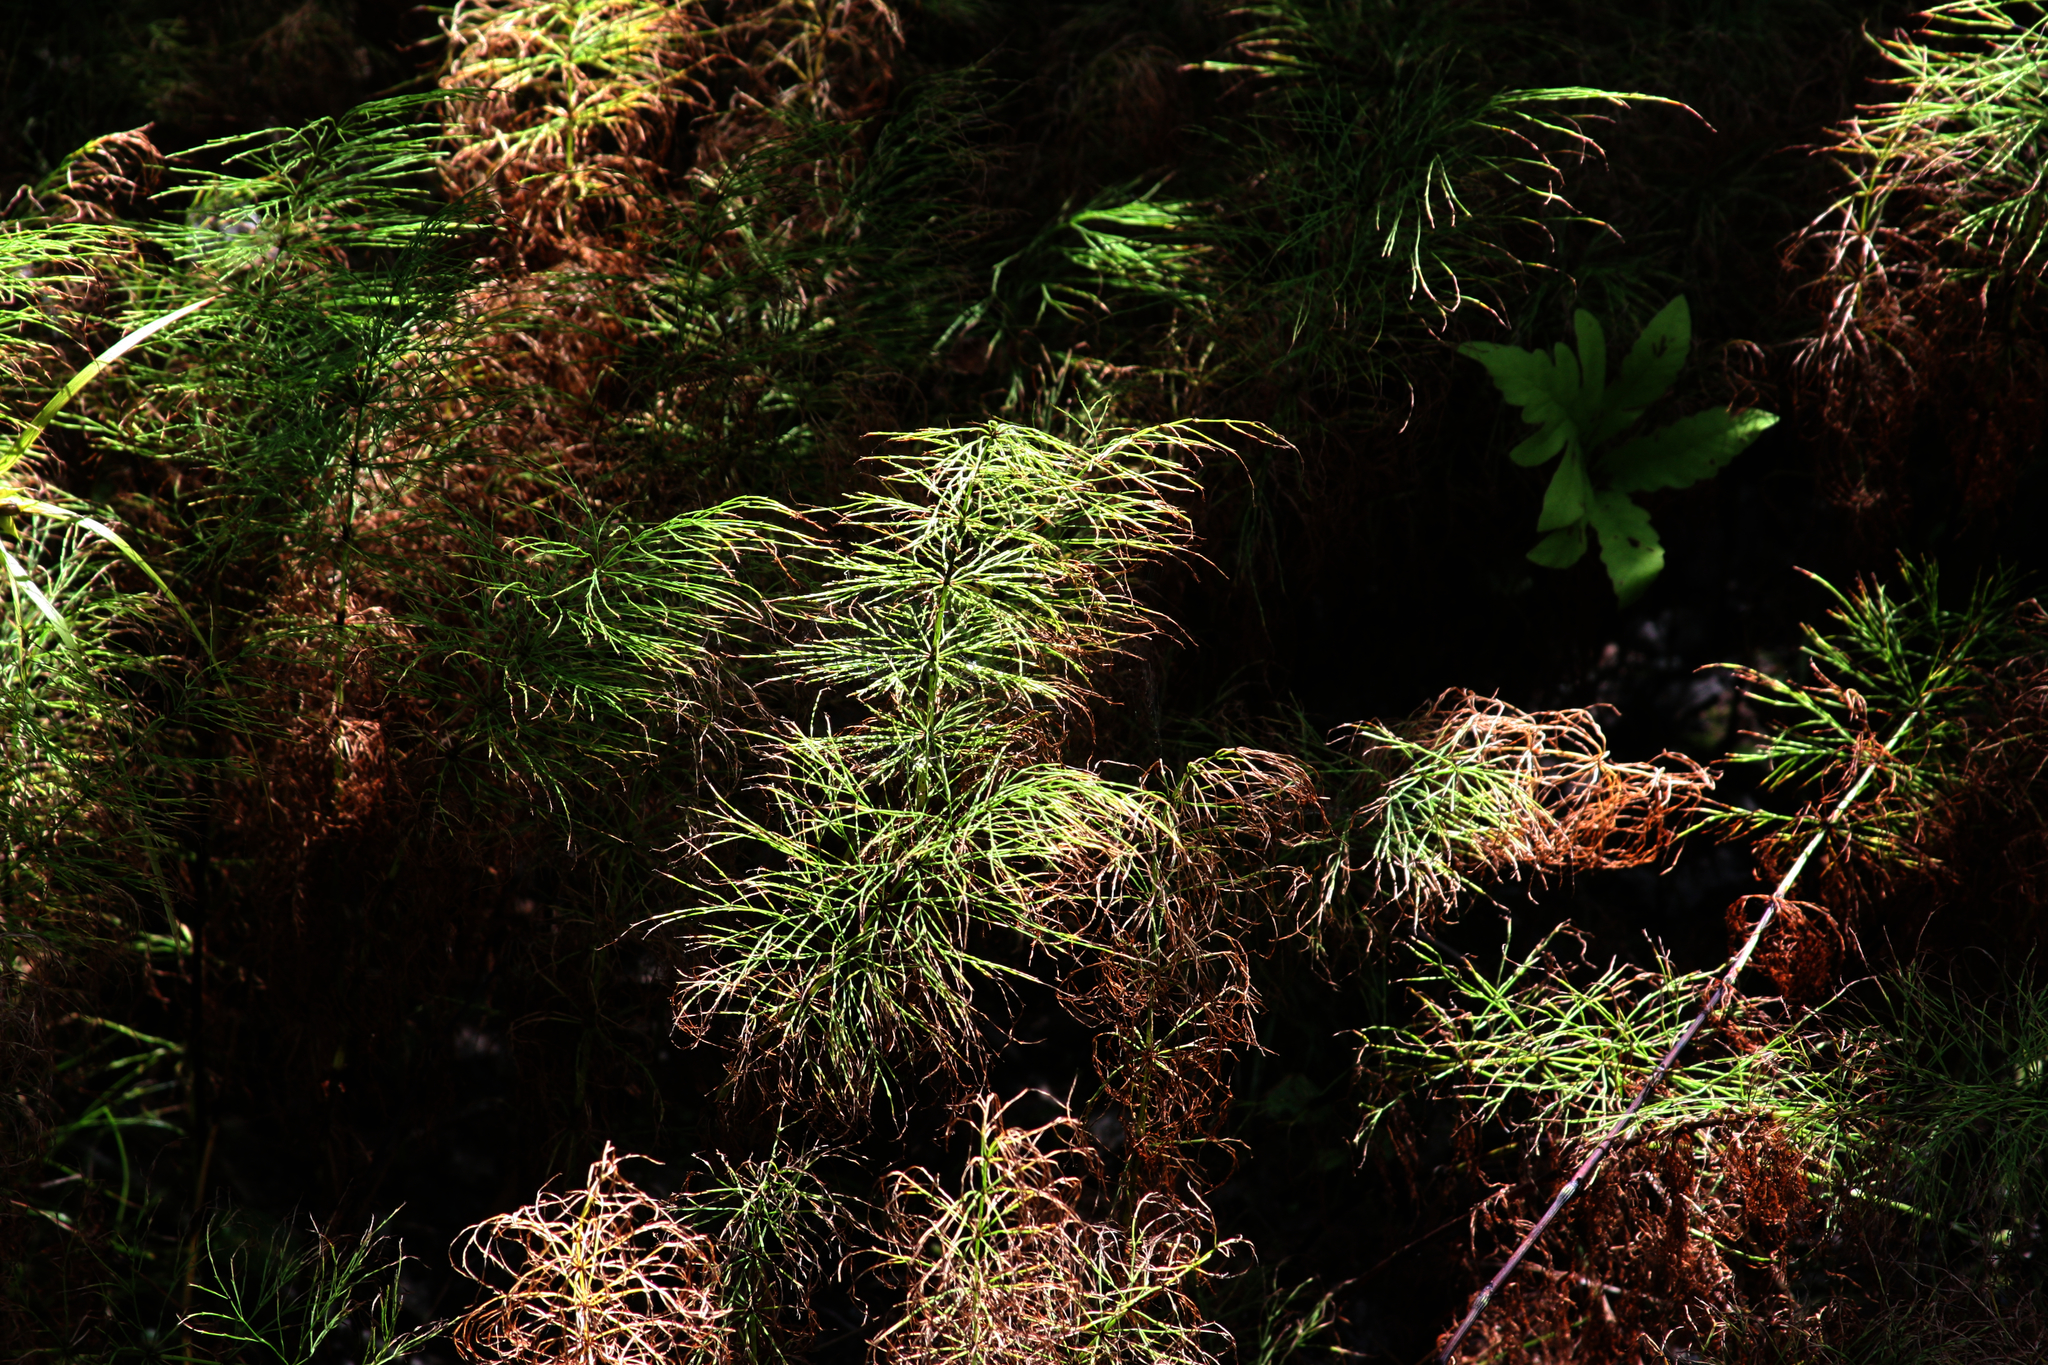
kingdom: Plantae
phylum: Tracheophyta
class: Polypodiopsida
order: Equisetales
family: Equisetaceae
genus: Equisetum
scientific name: Equisetum sylvaticum
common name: Wood horsetail
